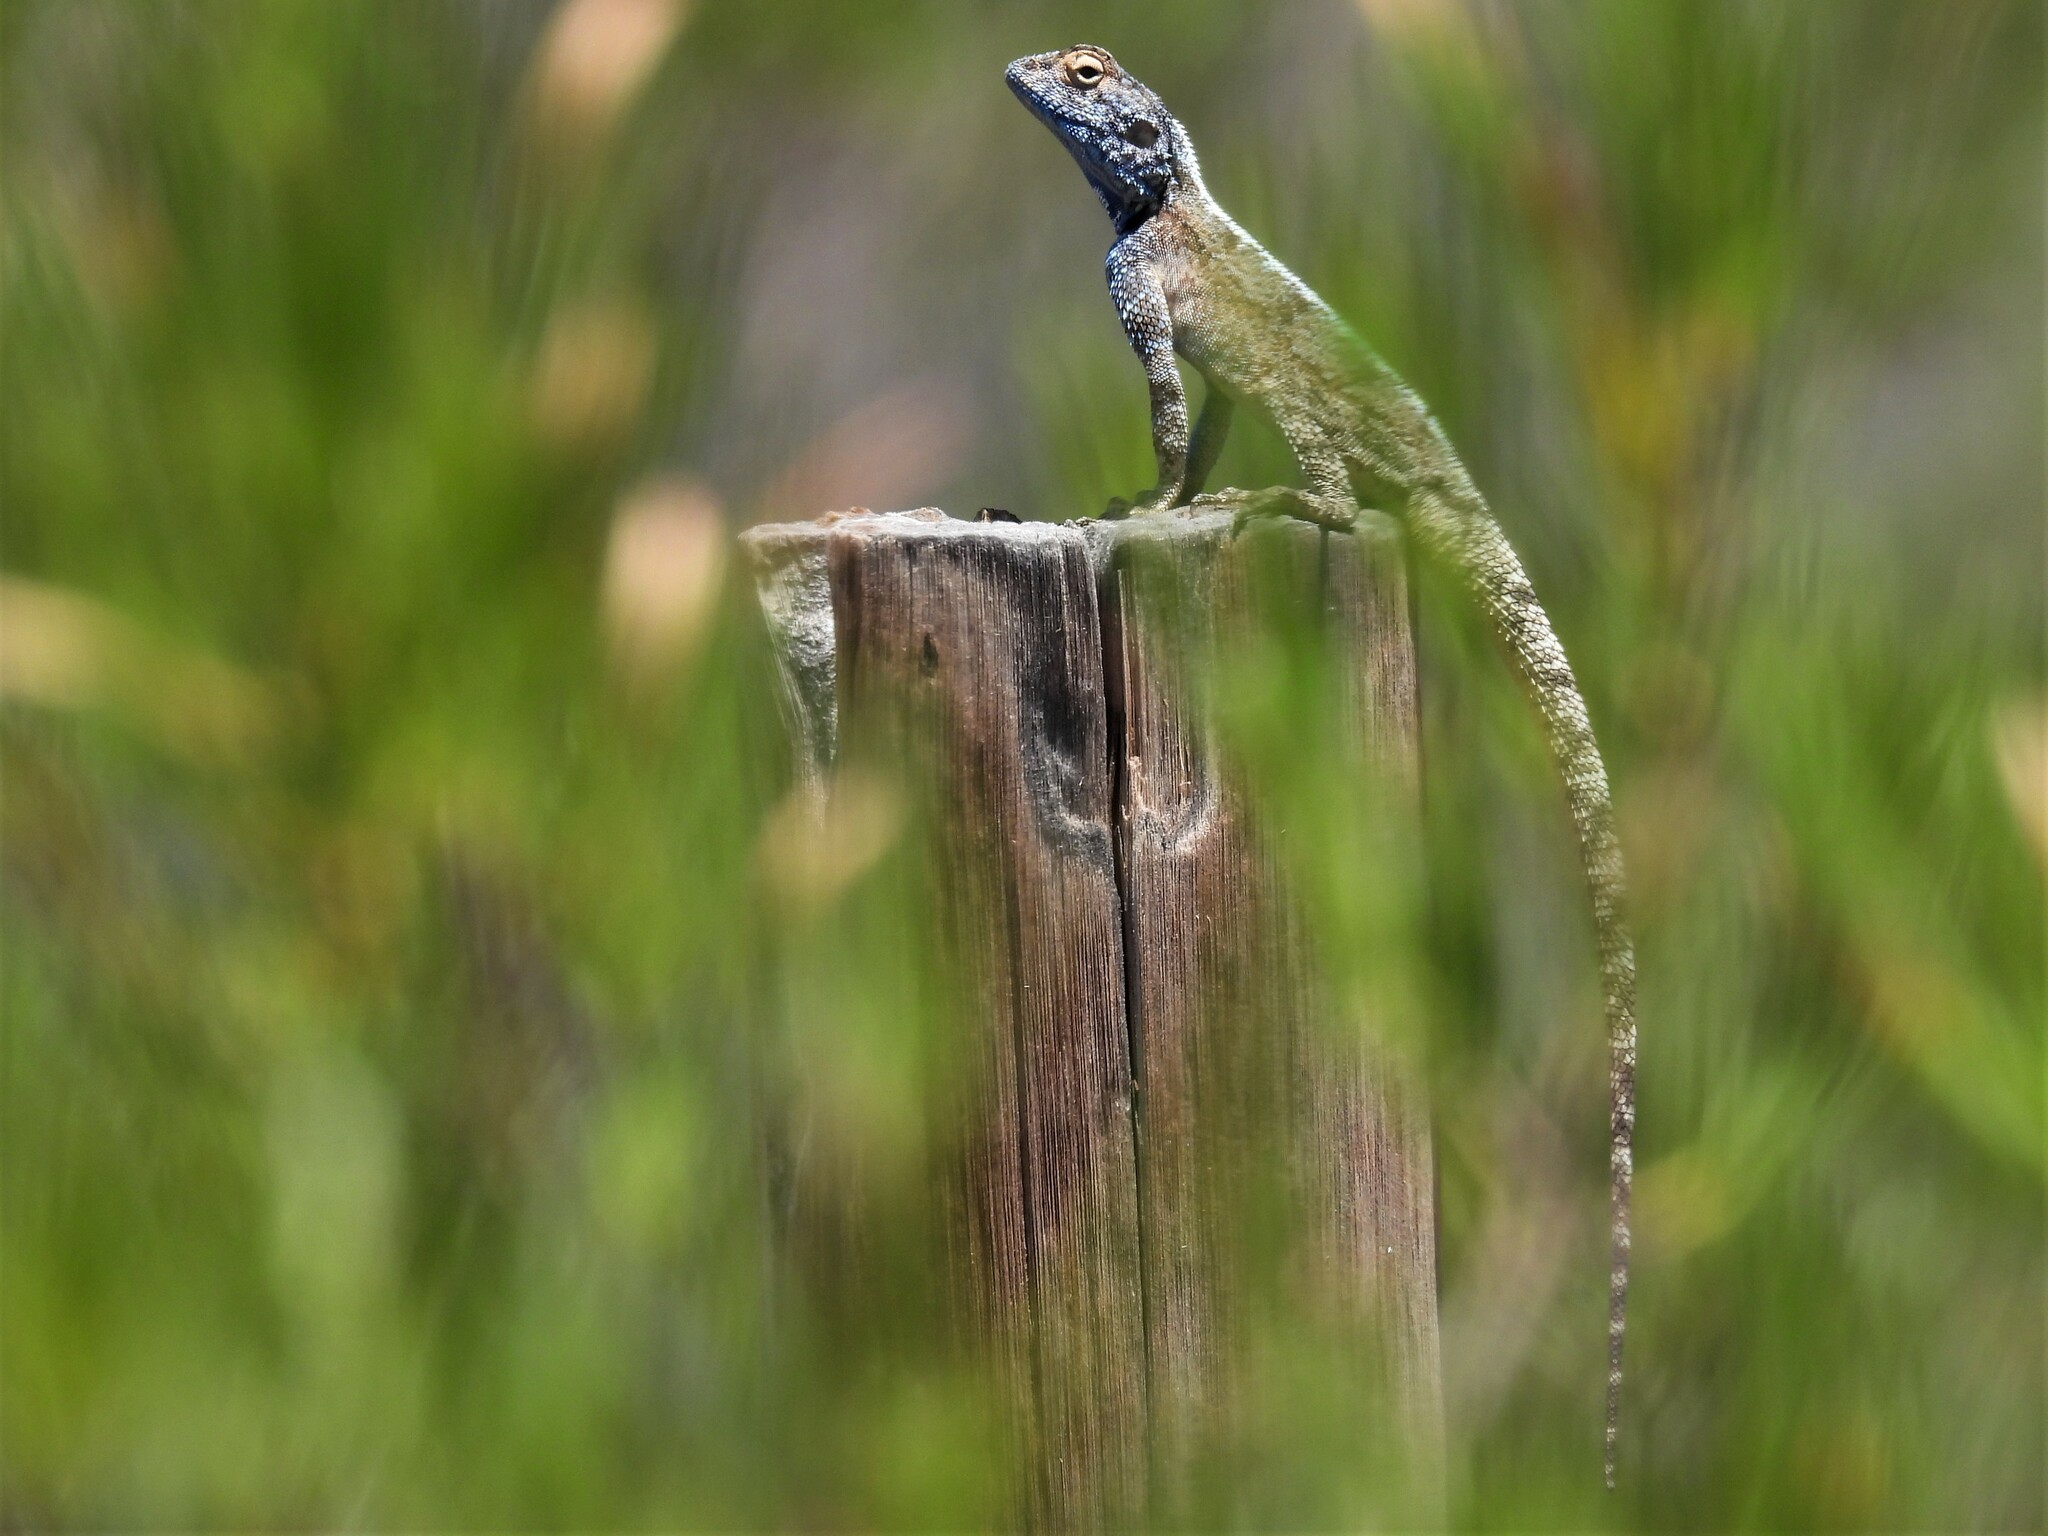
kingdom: Animalia
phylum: Chordata
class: Squamata
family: Agamidae
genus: Agama
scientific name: Agama atra
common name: Southern african rock agama
